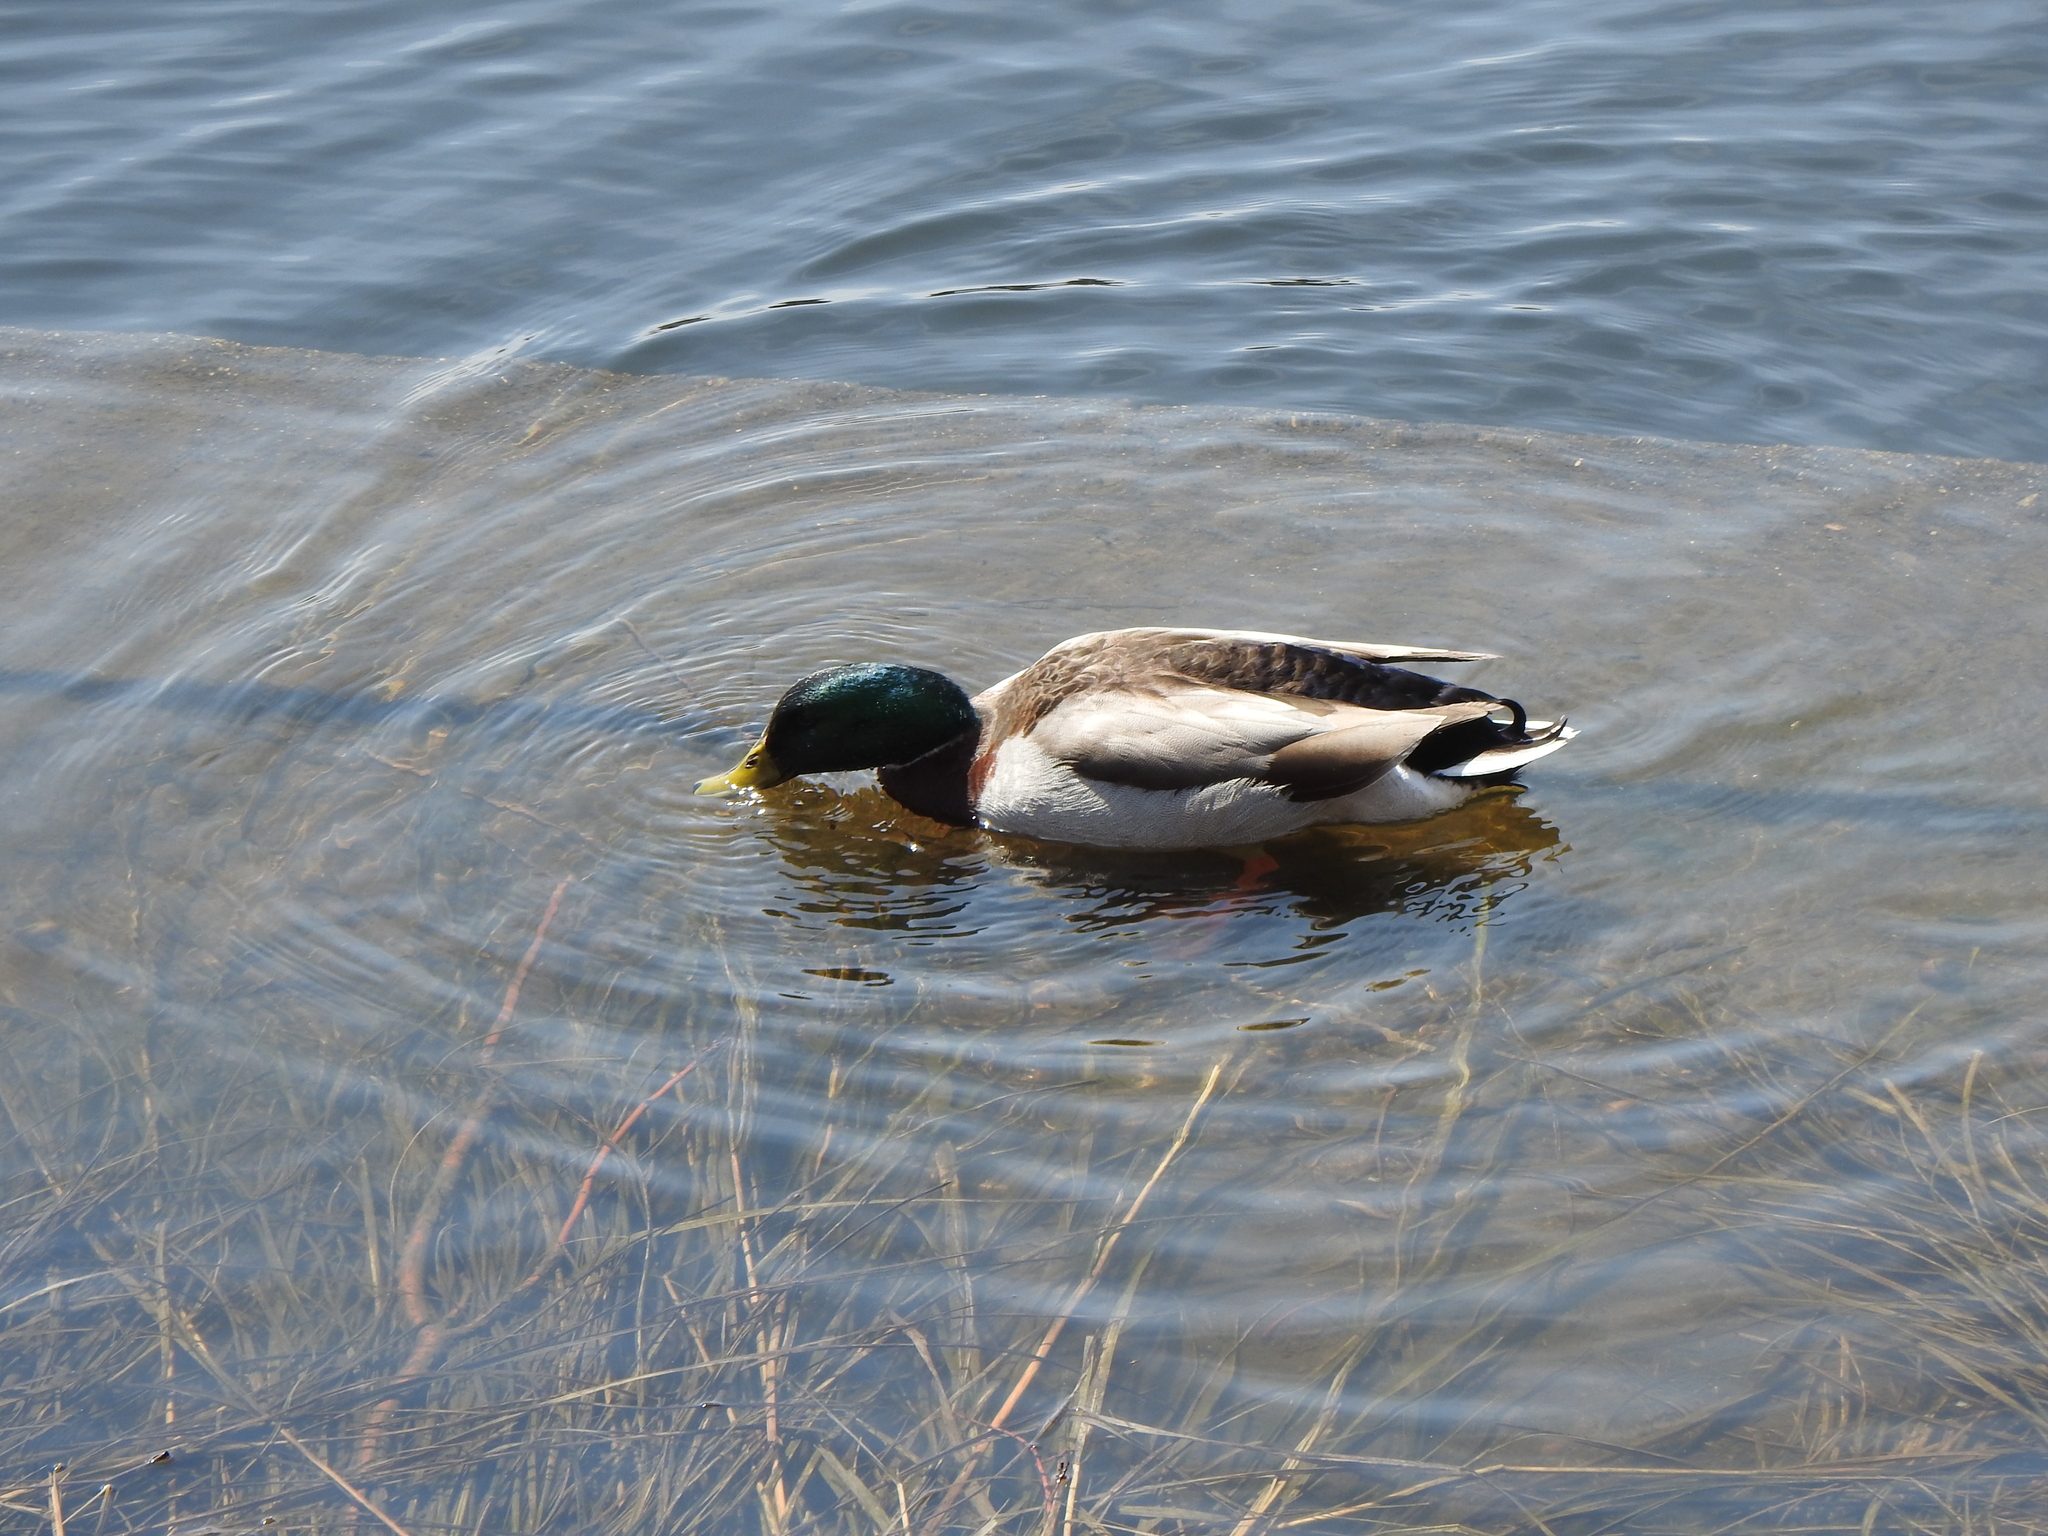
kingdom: Animalia
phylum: Chordata
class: Aves
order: Anseriformes
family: Anatidae
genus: Anas
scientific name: Anas platyrhynchos
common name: Mallard
